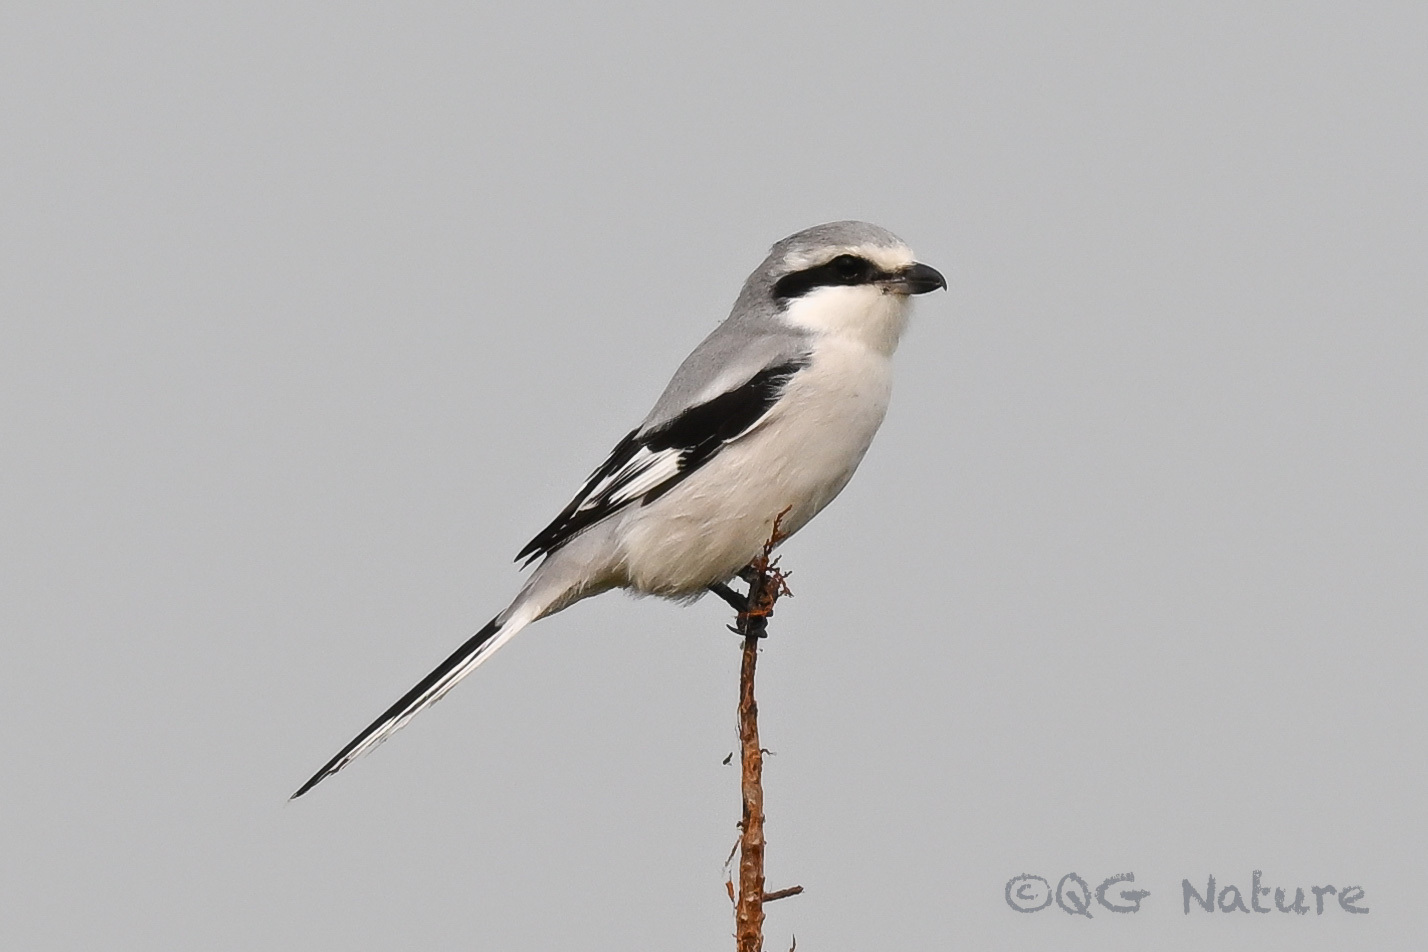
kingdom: Animalia
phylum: Chordata
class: Aves
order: Passeriformes
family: Laniidae
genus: Lanius
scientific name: Lanius sphenocercus
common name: Chinese grey shrike
